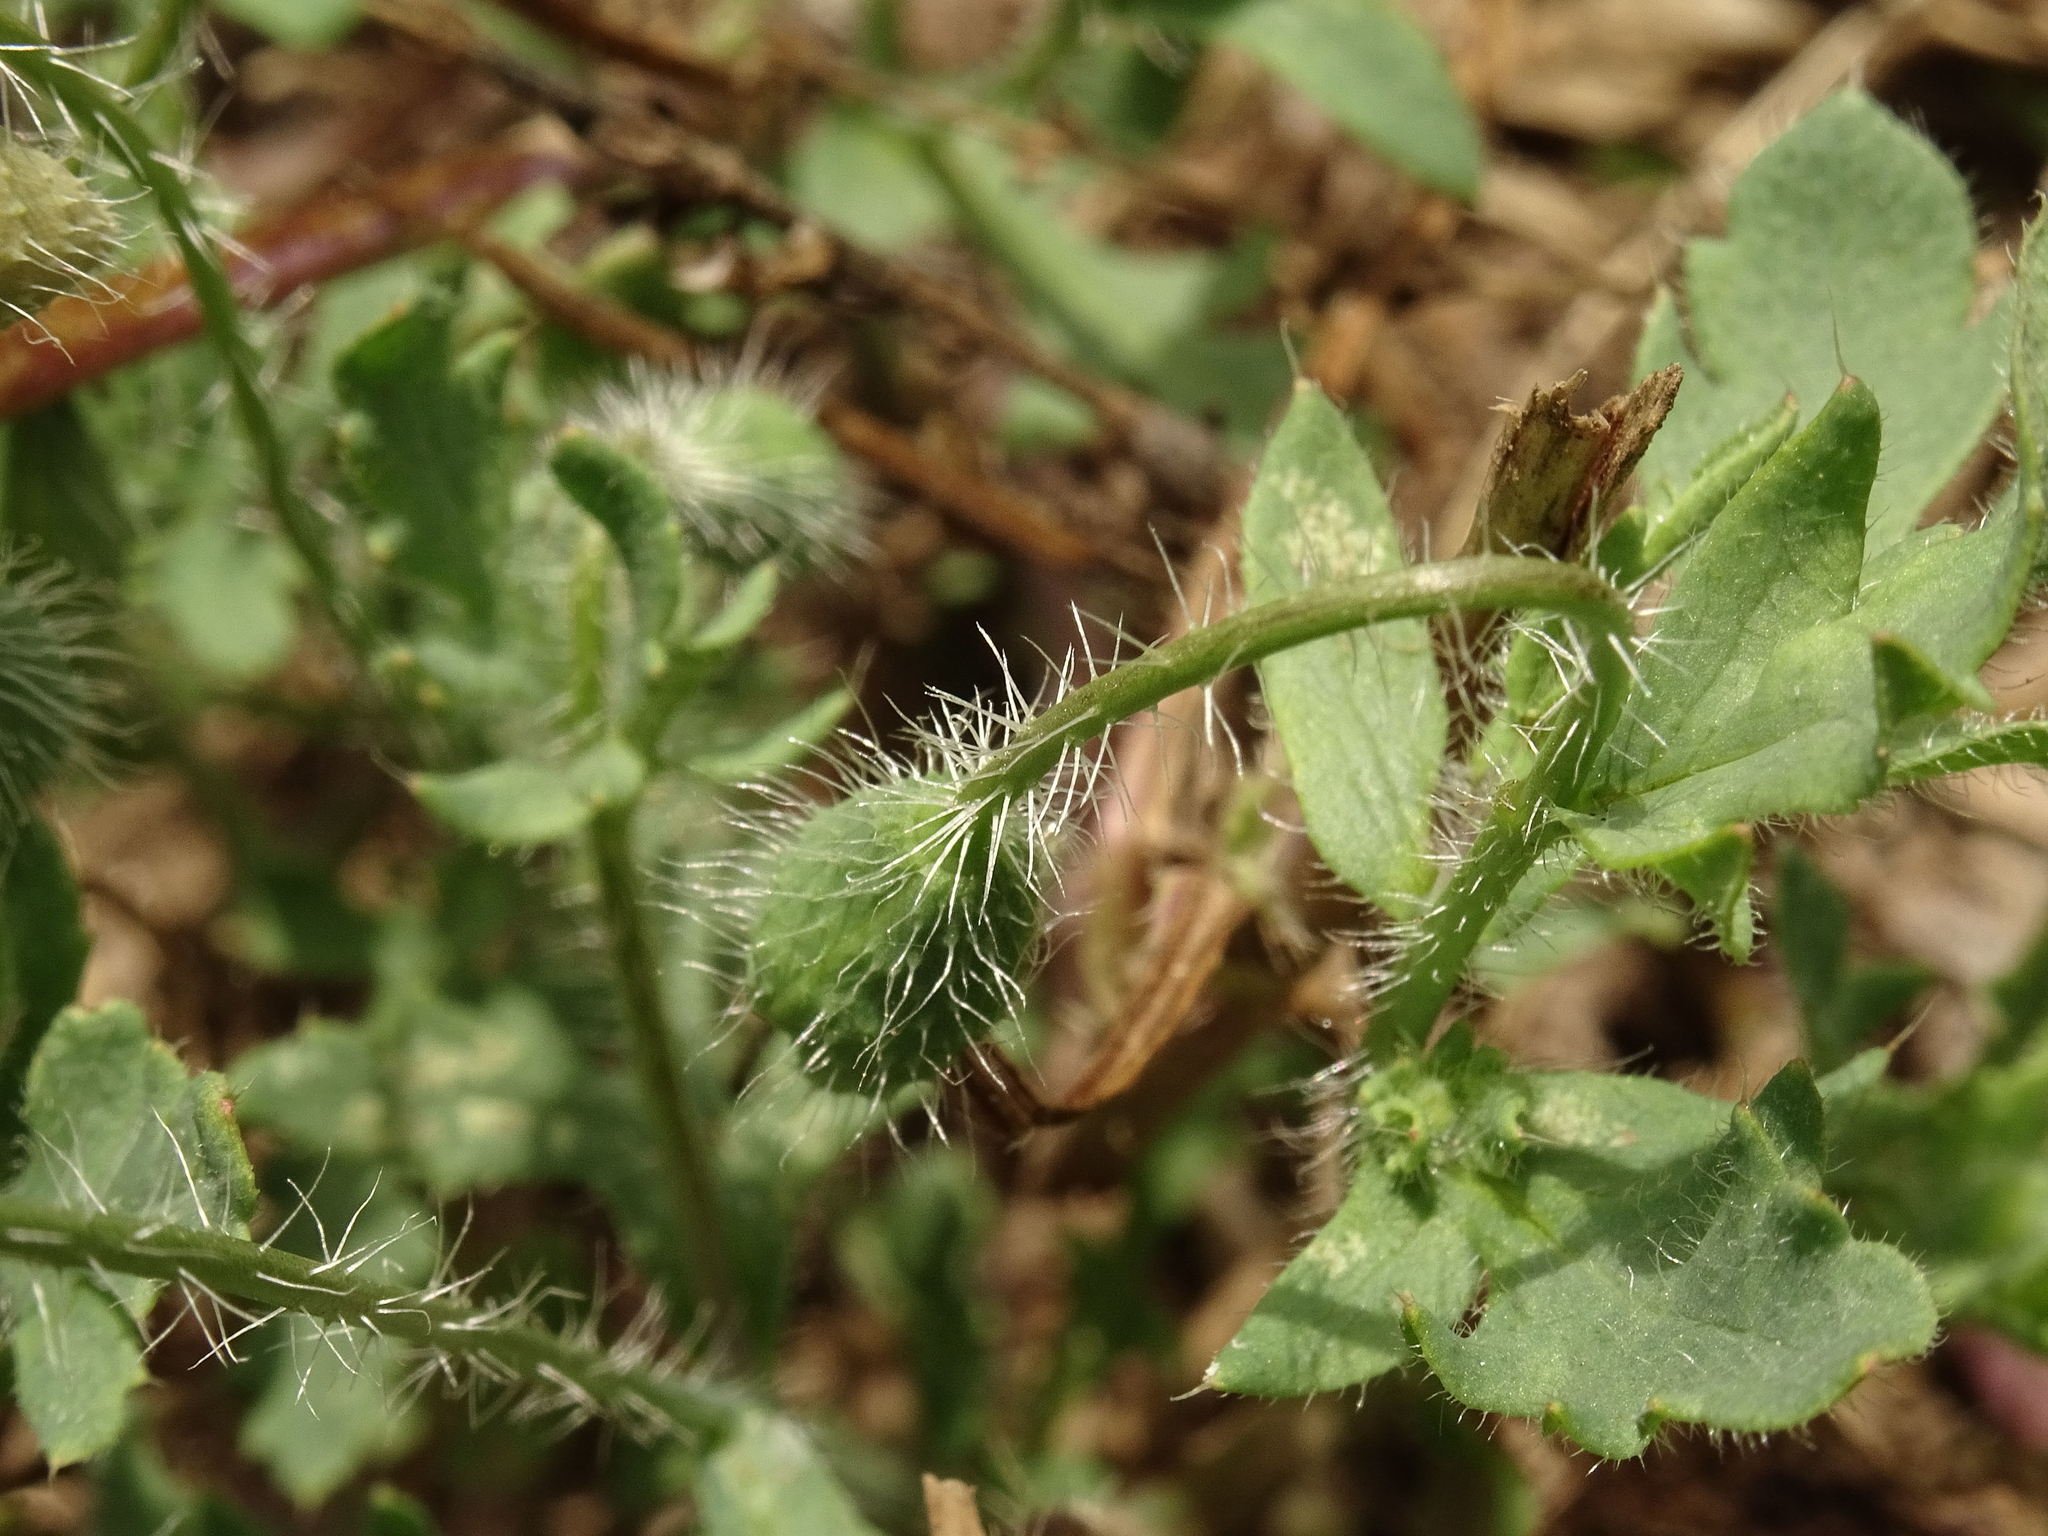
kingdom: Plantae
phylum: Tracheophyta
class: Magnoliopsida
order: Ranunculales
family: Papaveraceae
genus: Papaver
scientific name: Papaver rhoeas
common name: Corn poppy
